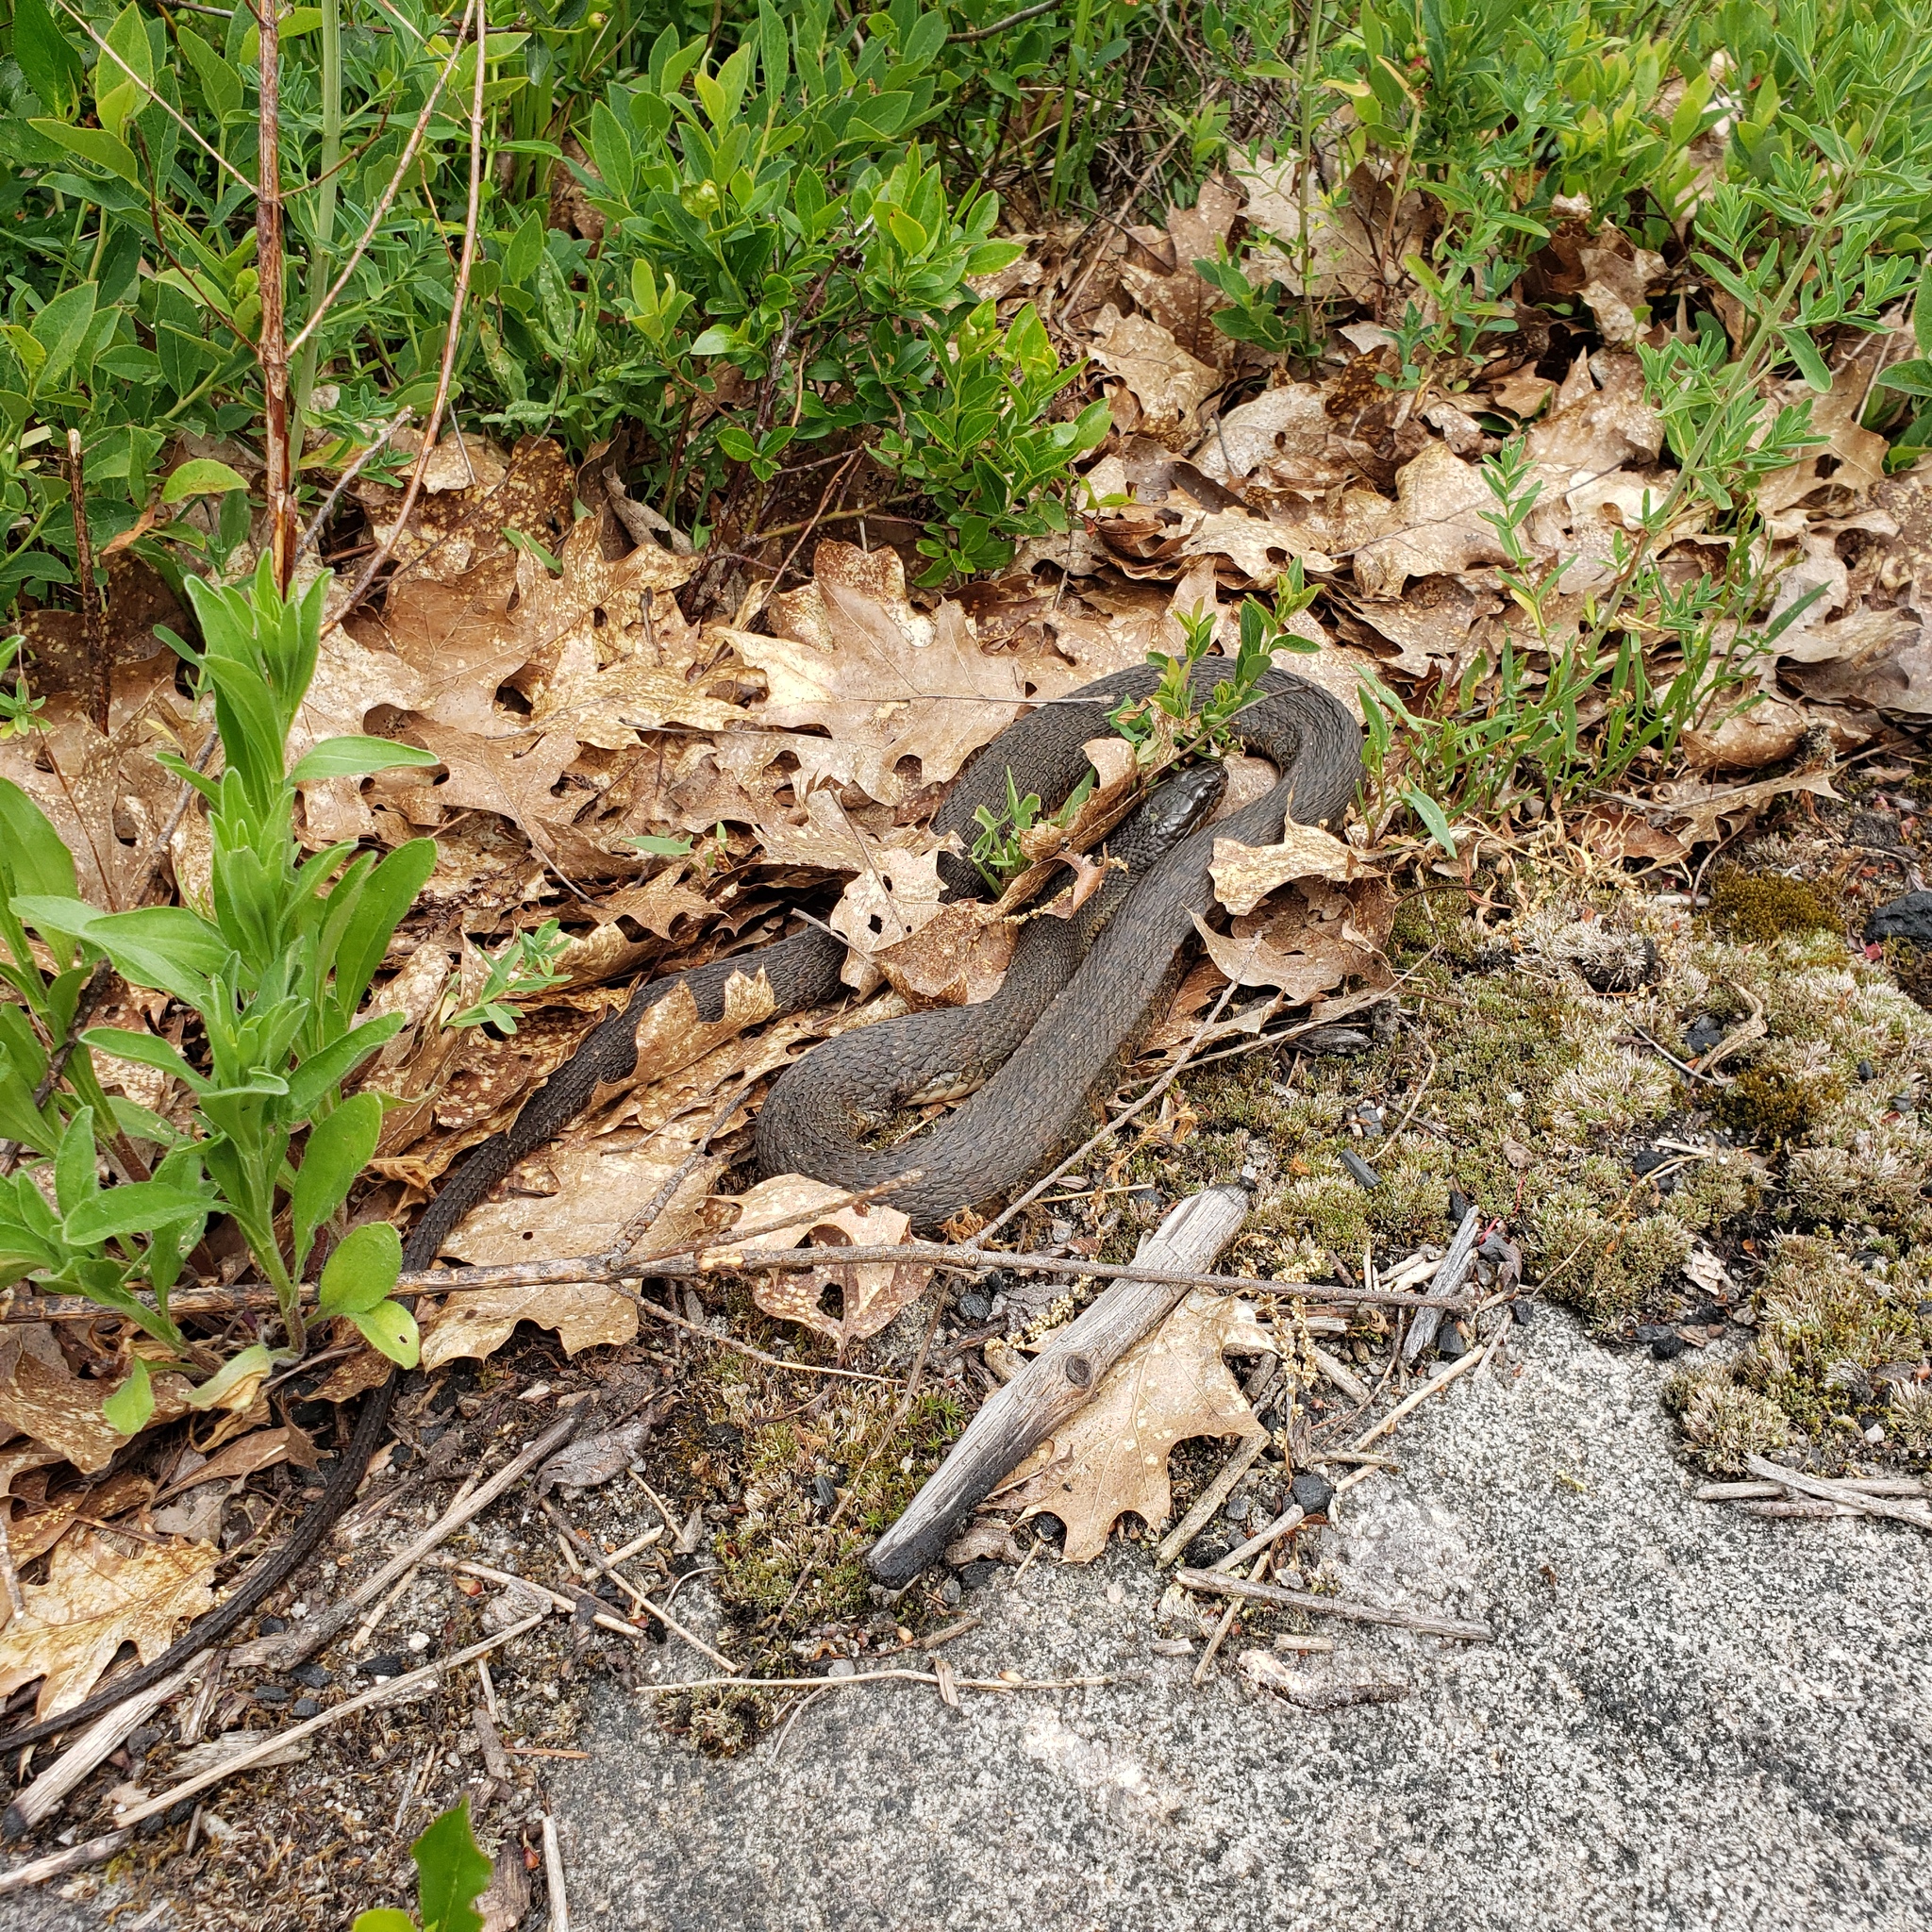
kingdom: Animalia
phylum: Chordata
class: Squamata
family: Colubridae
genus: Nerodia
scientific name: Nerodia sipedon
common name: Northern water snake
